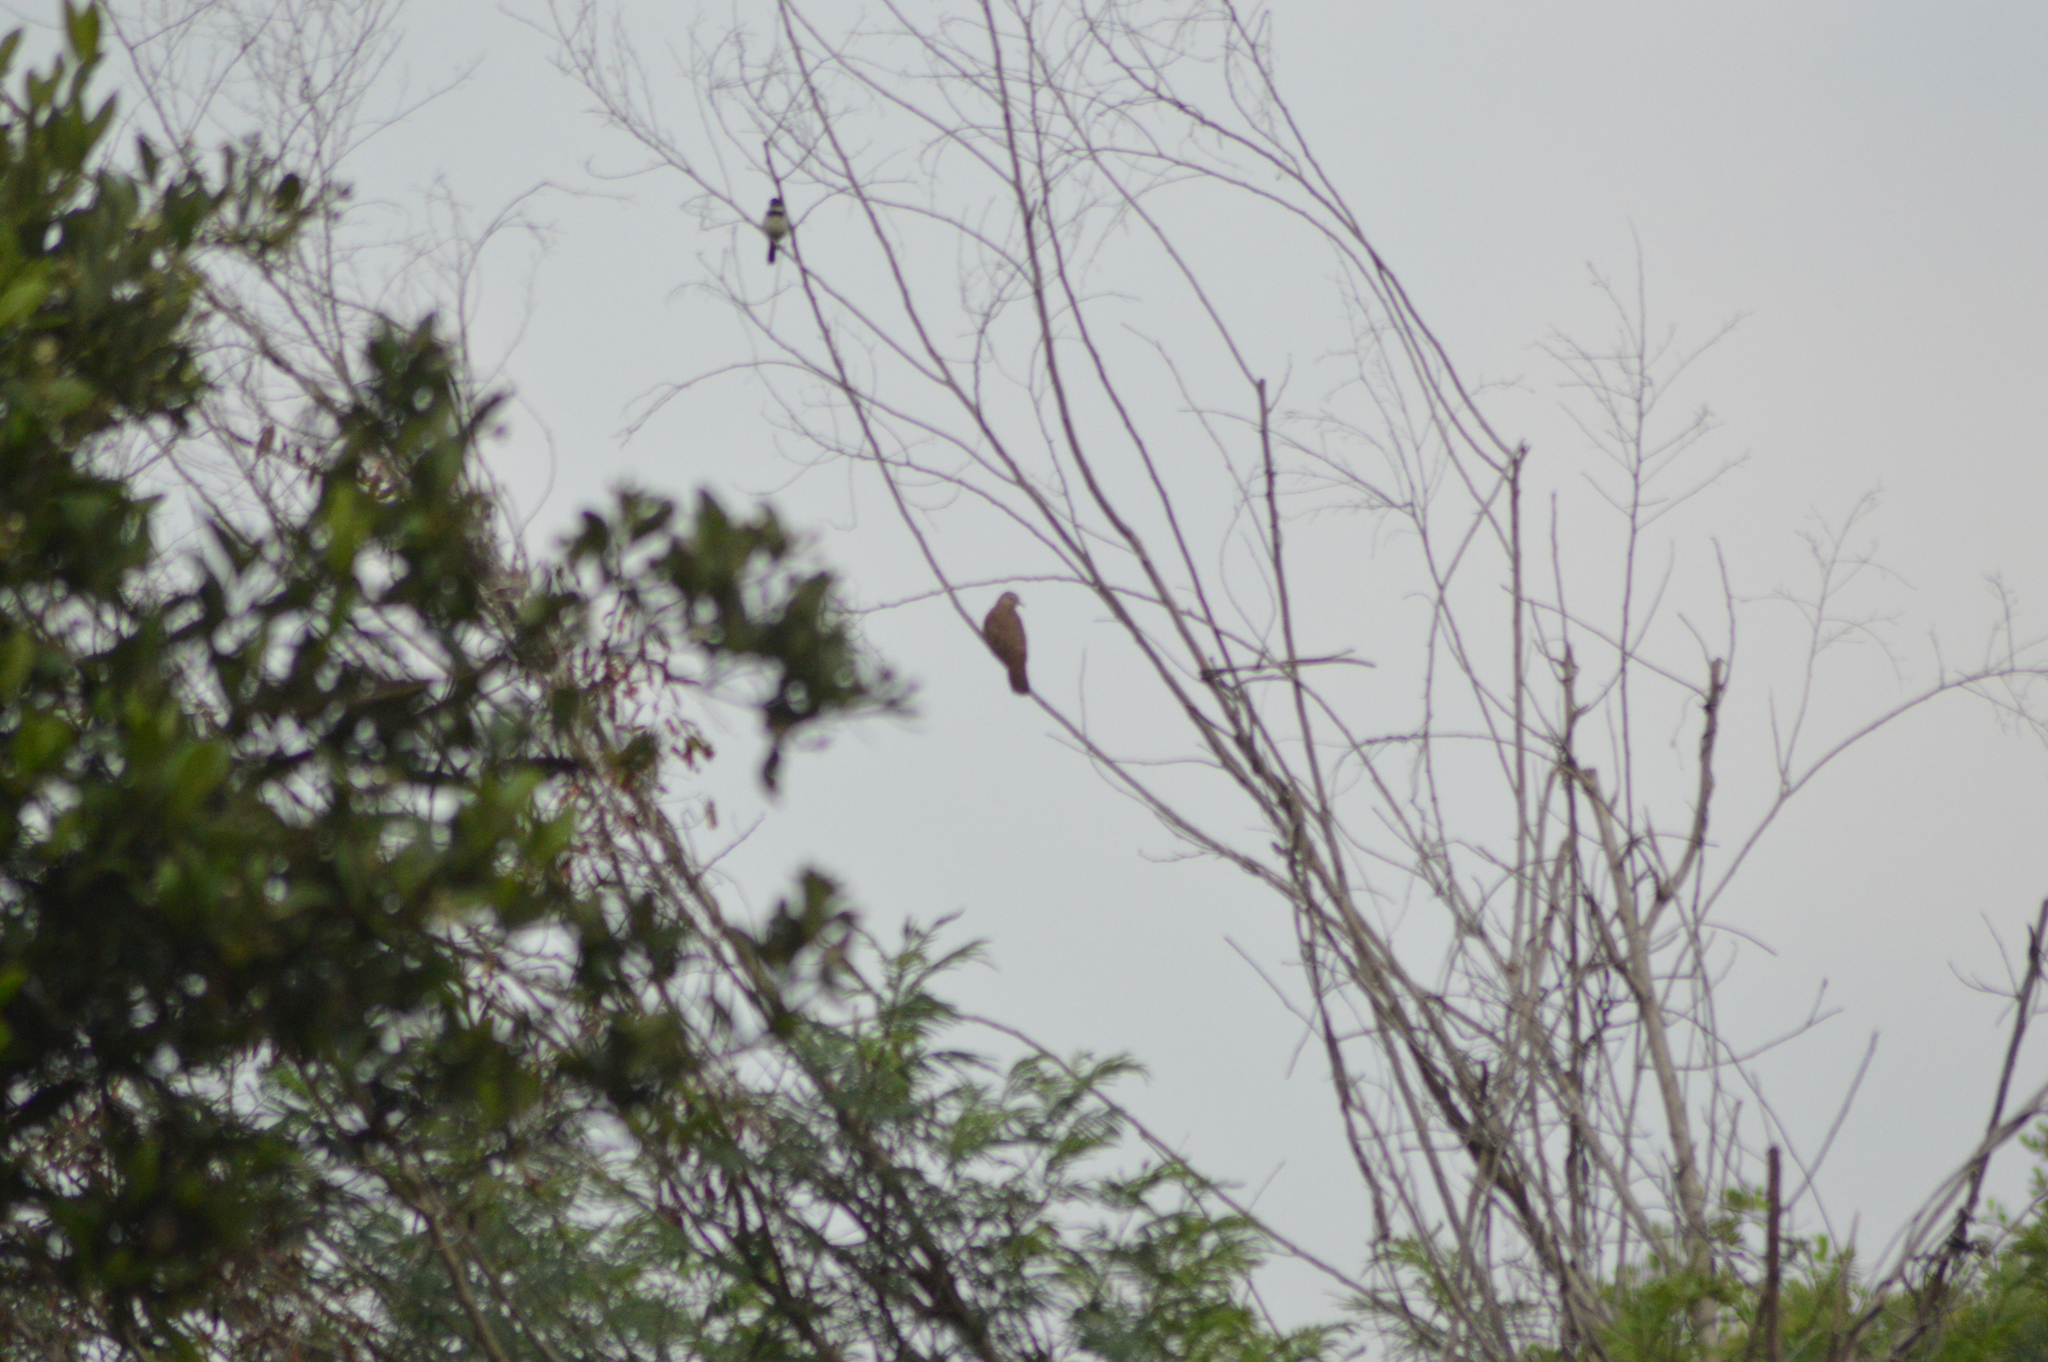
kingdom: Animalia
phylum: Chordata
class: Aves
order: Columbiformes
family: Columbidae
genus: Columbina
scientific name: Columbina talpacoti
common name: Ruddy ground dove
